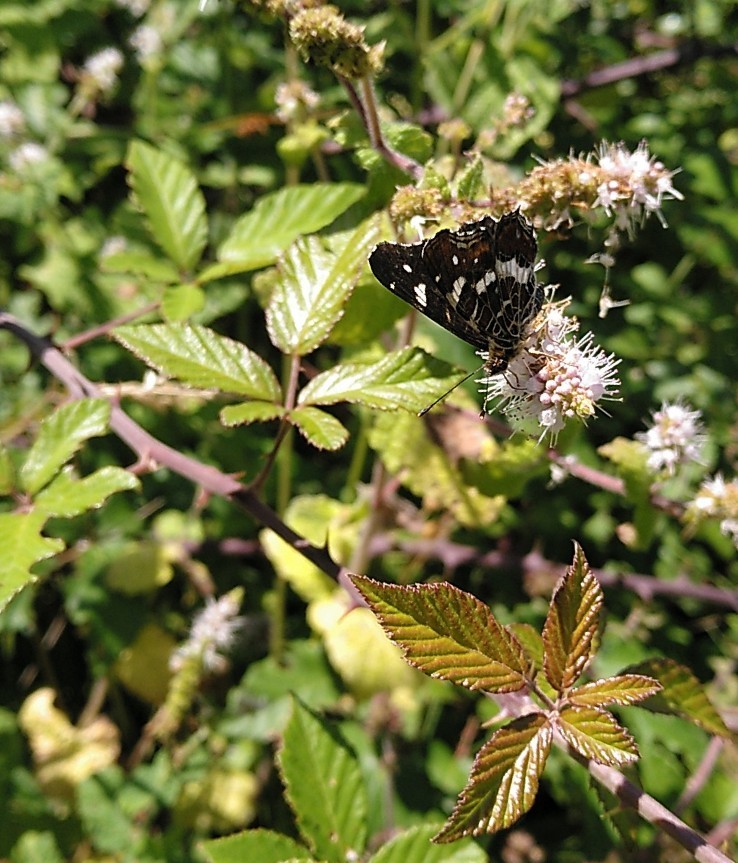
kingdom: Animalia
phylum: Arthropoda
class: Insecta
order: Lepidoptera
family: Nymphalidae
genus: Araschnia
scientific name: Araschnia levana
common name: Map butterfly
